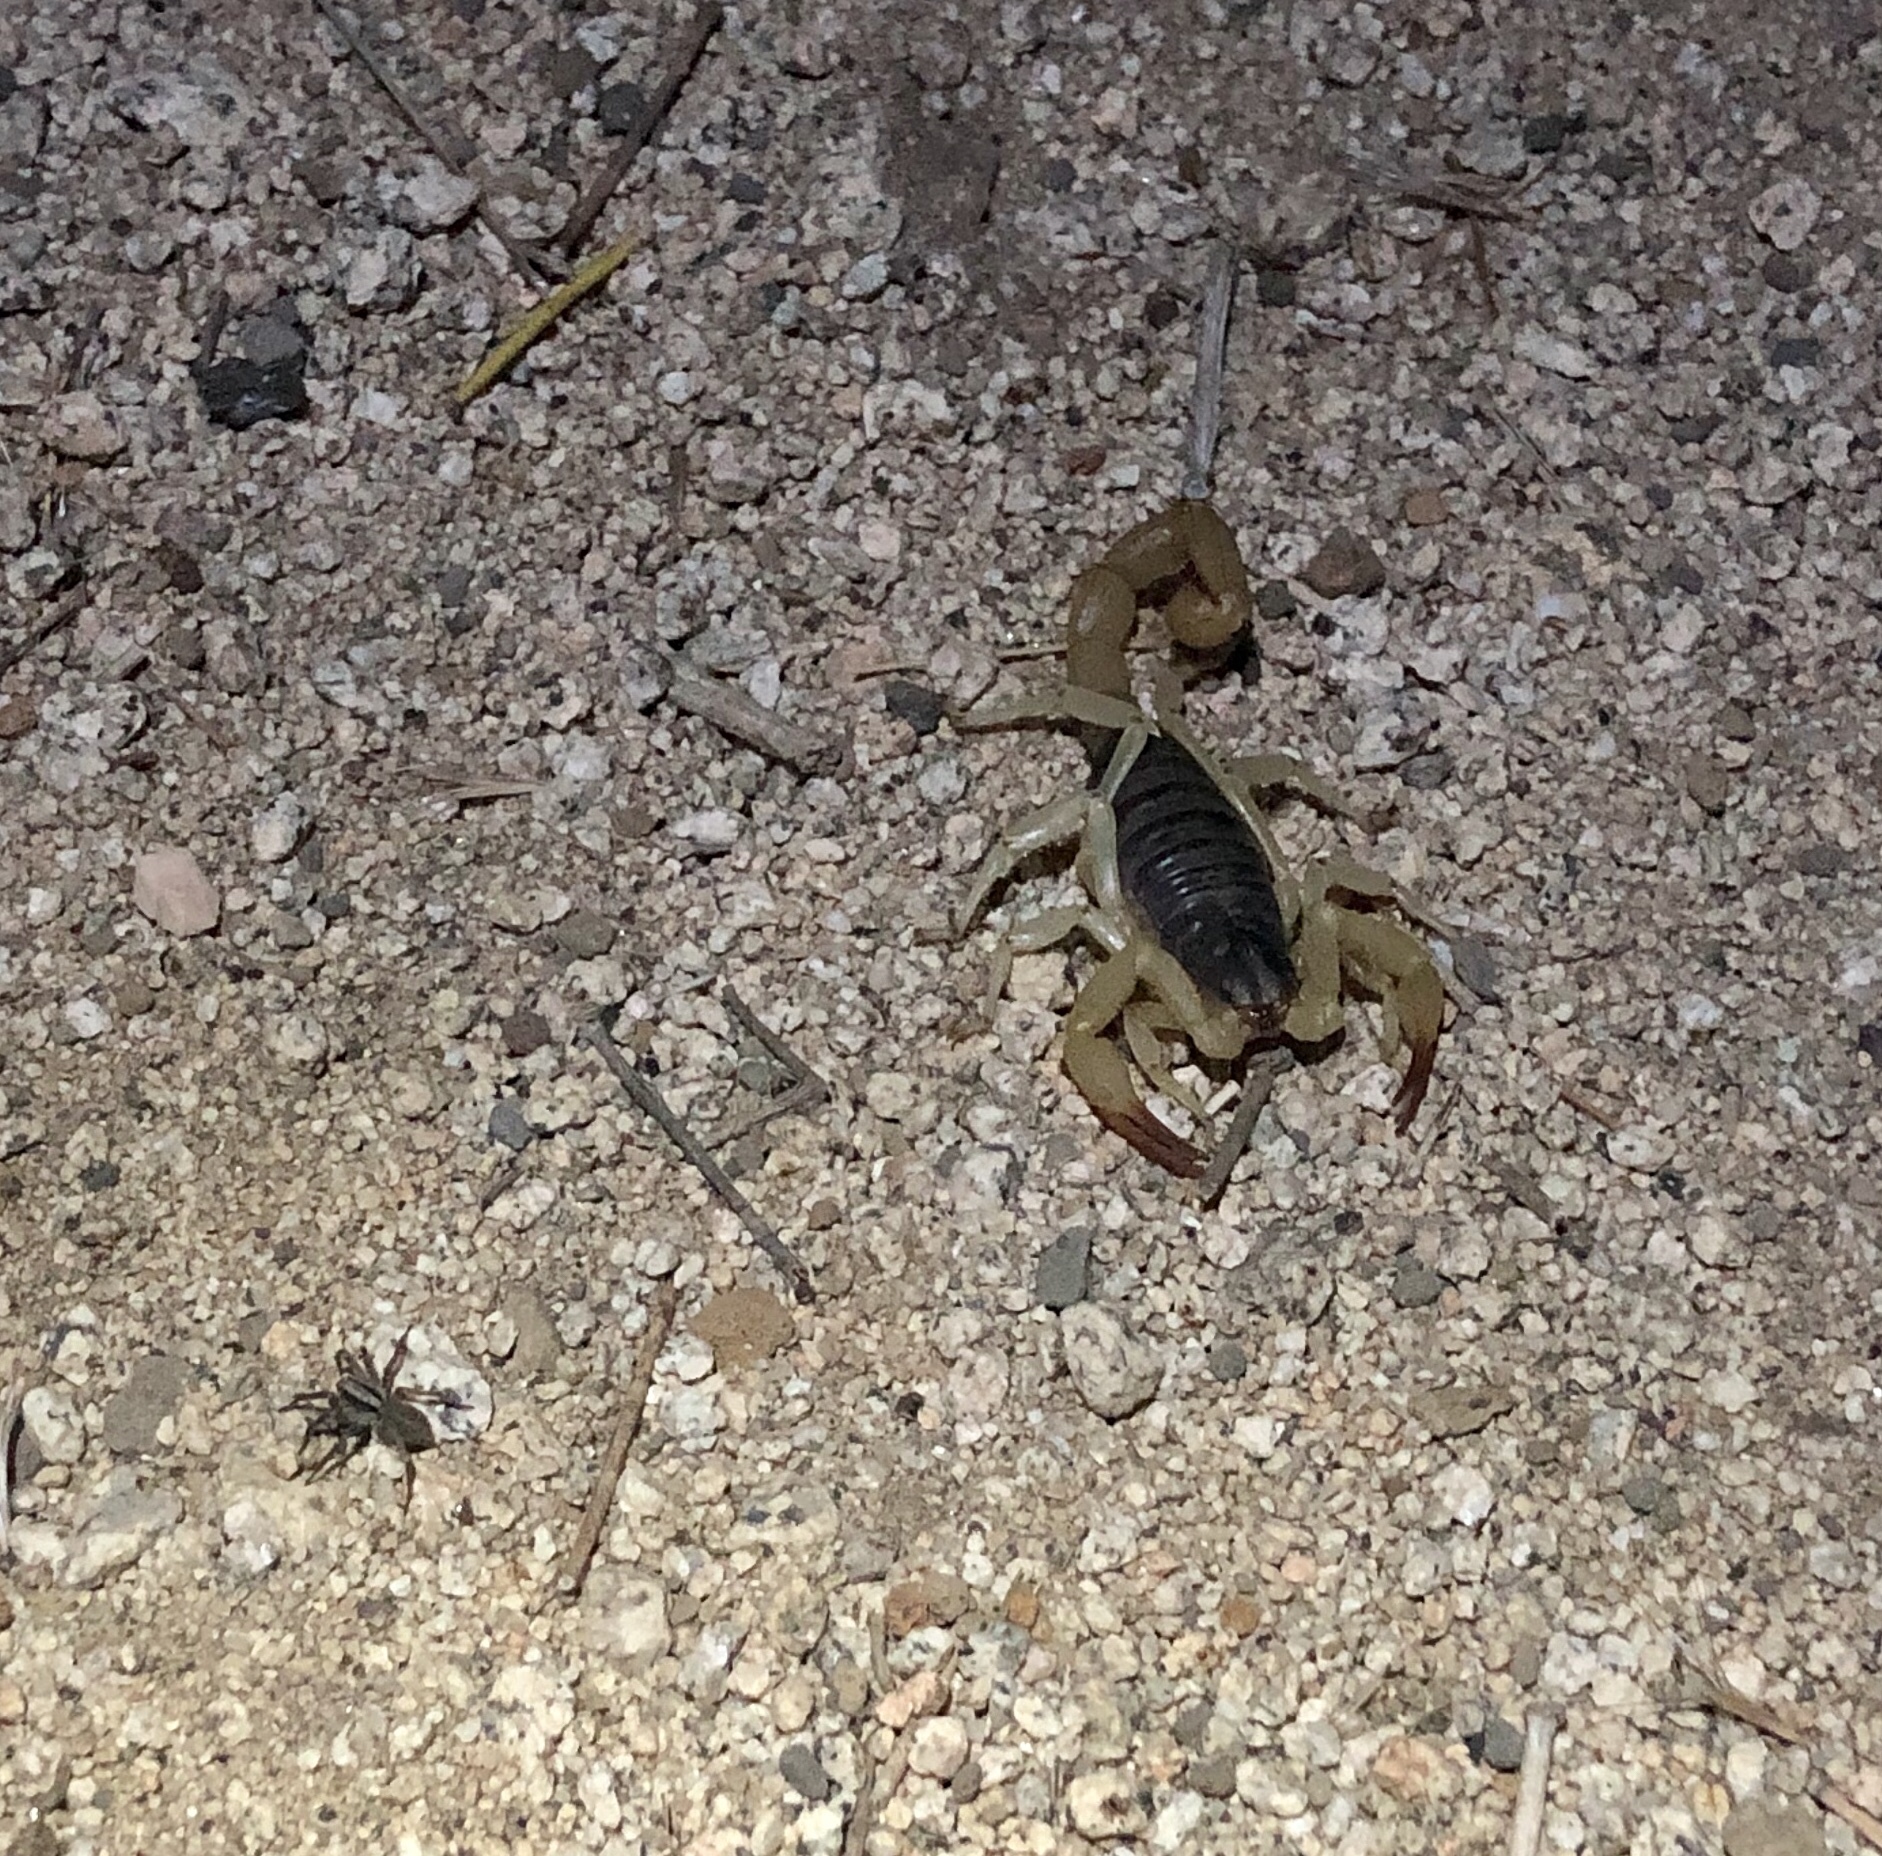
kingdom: Animalia
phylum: Arthropoda
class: Arachnida
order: Scorpiones
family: Hadruridae
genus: Hadrurus
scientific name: Hadrurus spadix
